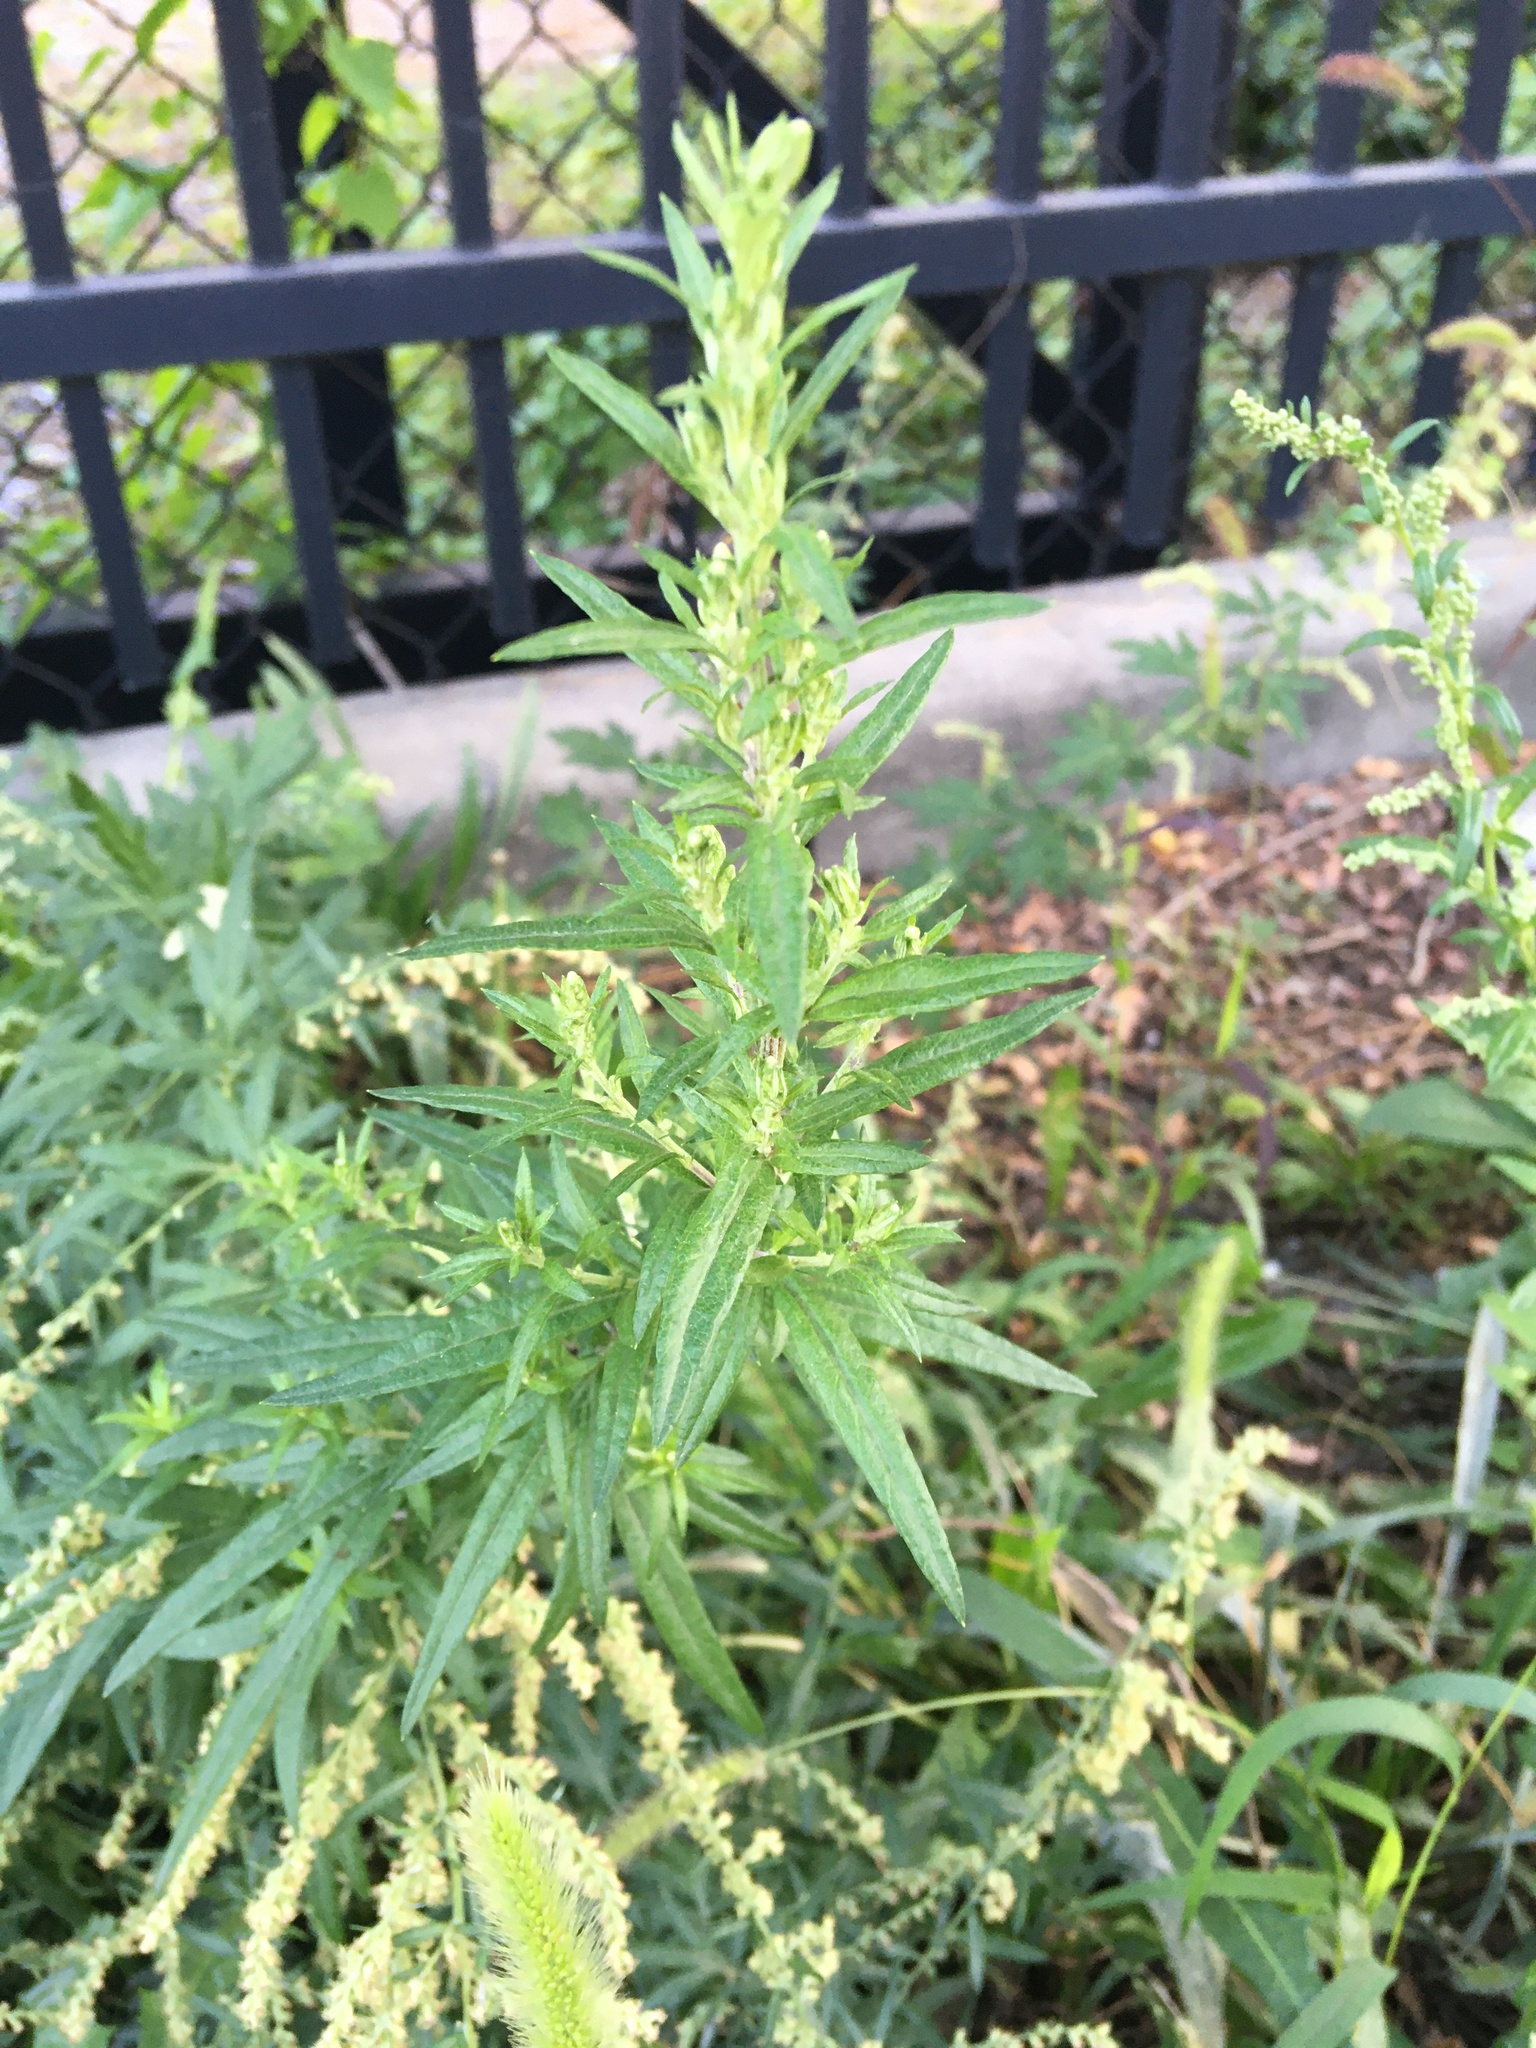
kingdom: Plantae
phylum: Tracheophyta
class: Magnoliopsida
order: Asterales
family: Asteraceae
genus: Artemisia
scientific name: Artemisia vulgaris
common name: Mugwort
